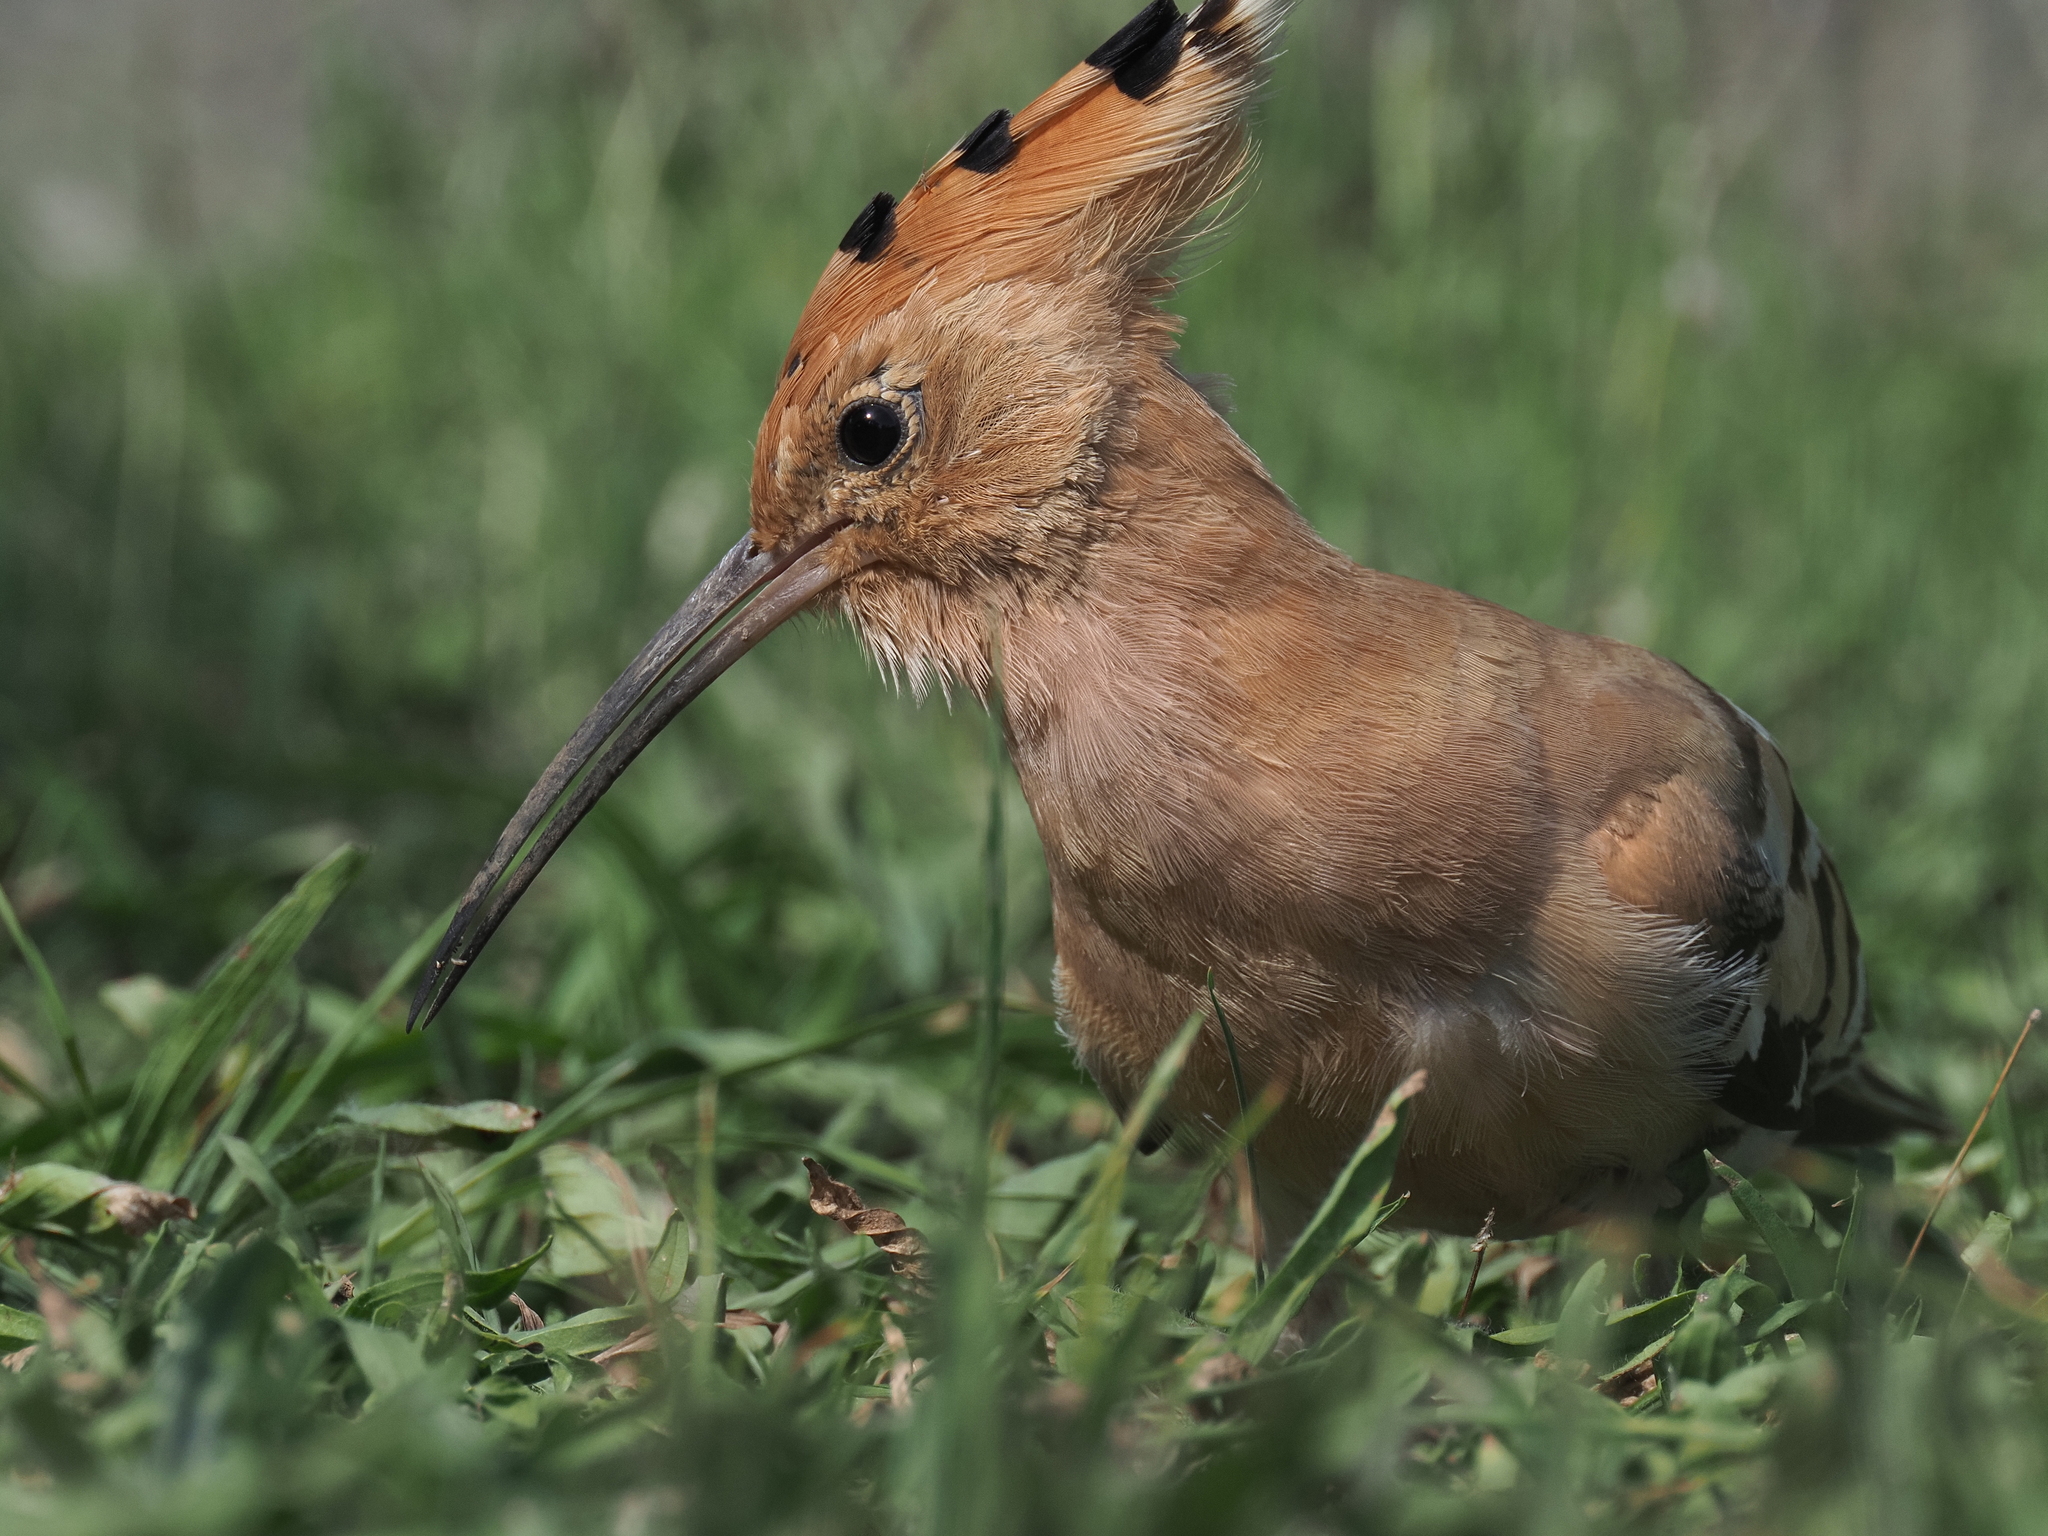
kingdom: Animalia
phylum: Chordata
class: Aves
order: Bucerotiformes
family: Upupidae
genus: Upupa
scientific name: Upupa epops
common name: Eurasian hoopoe
